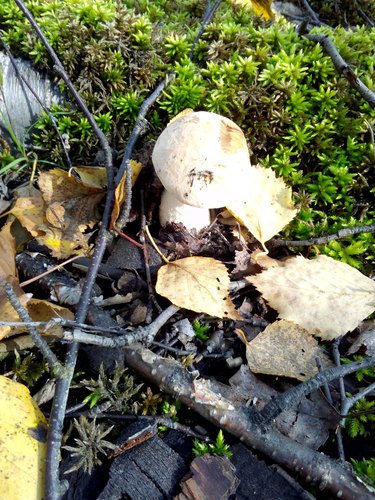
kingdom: Fungi
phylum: Basidiomycota
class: Agaricomycetes
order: Boletales
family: Boletaceae
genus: Leccinum
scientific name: Leccinum scabrum
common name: Blushing bolete
